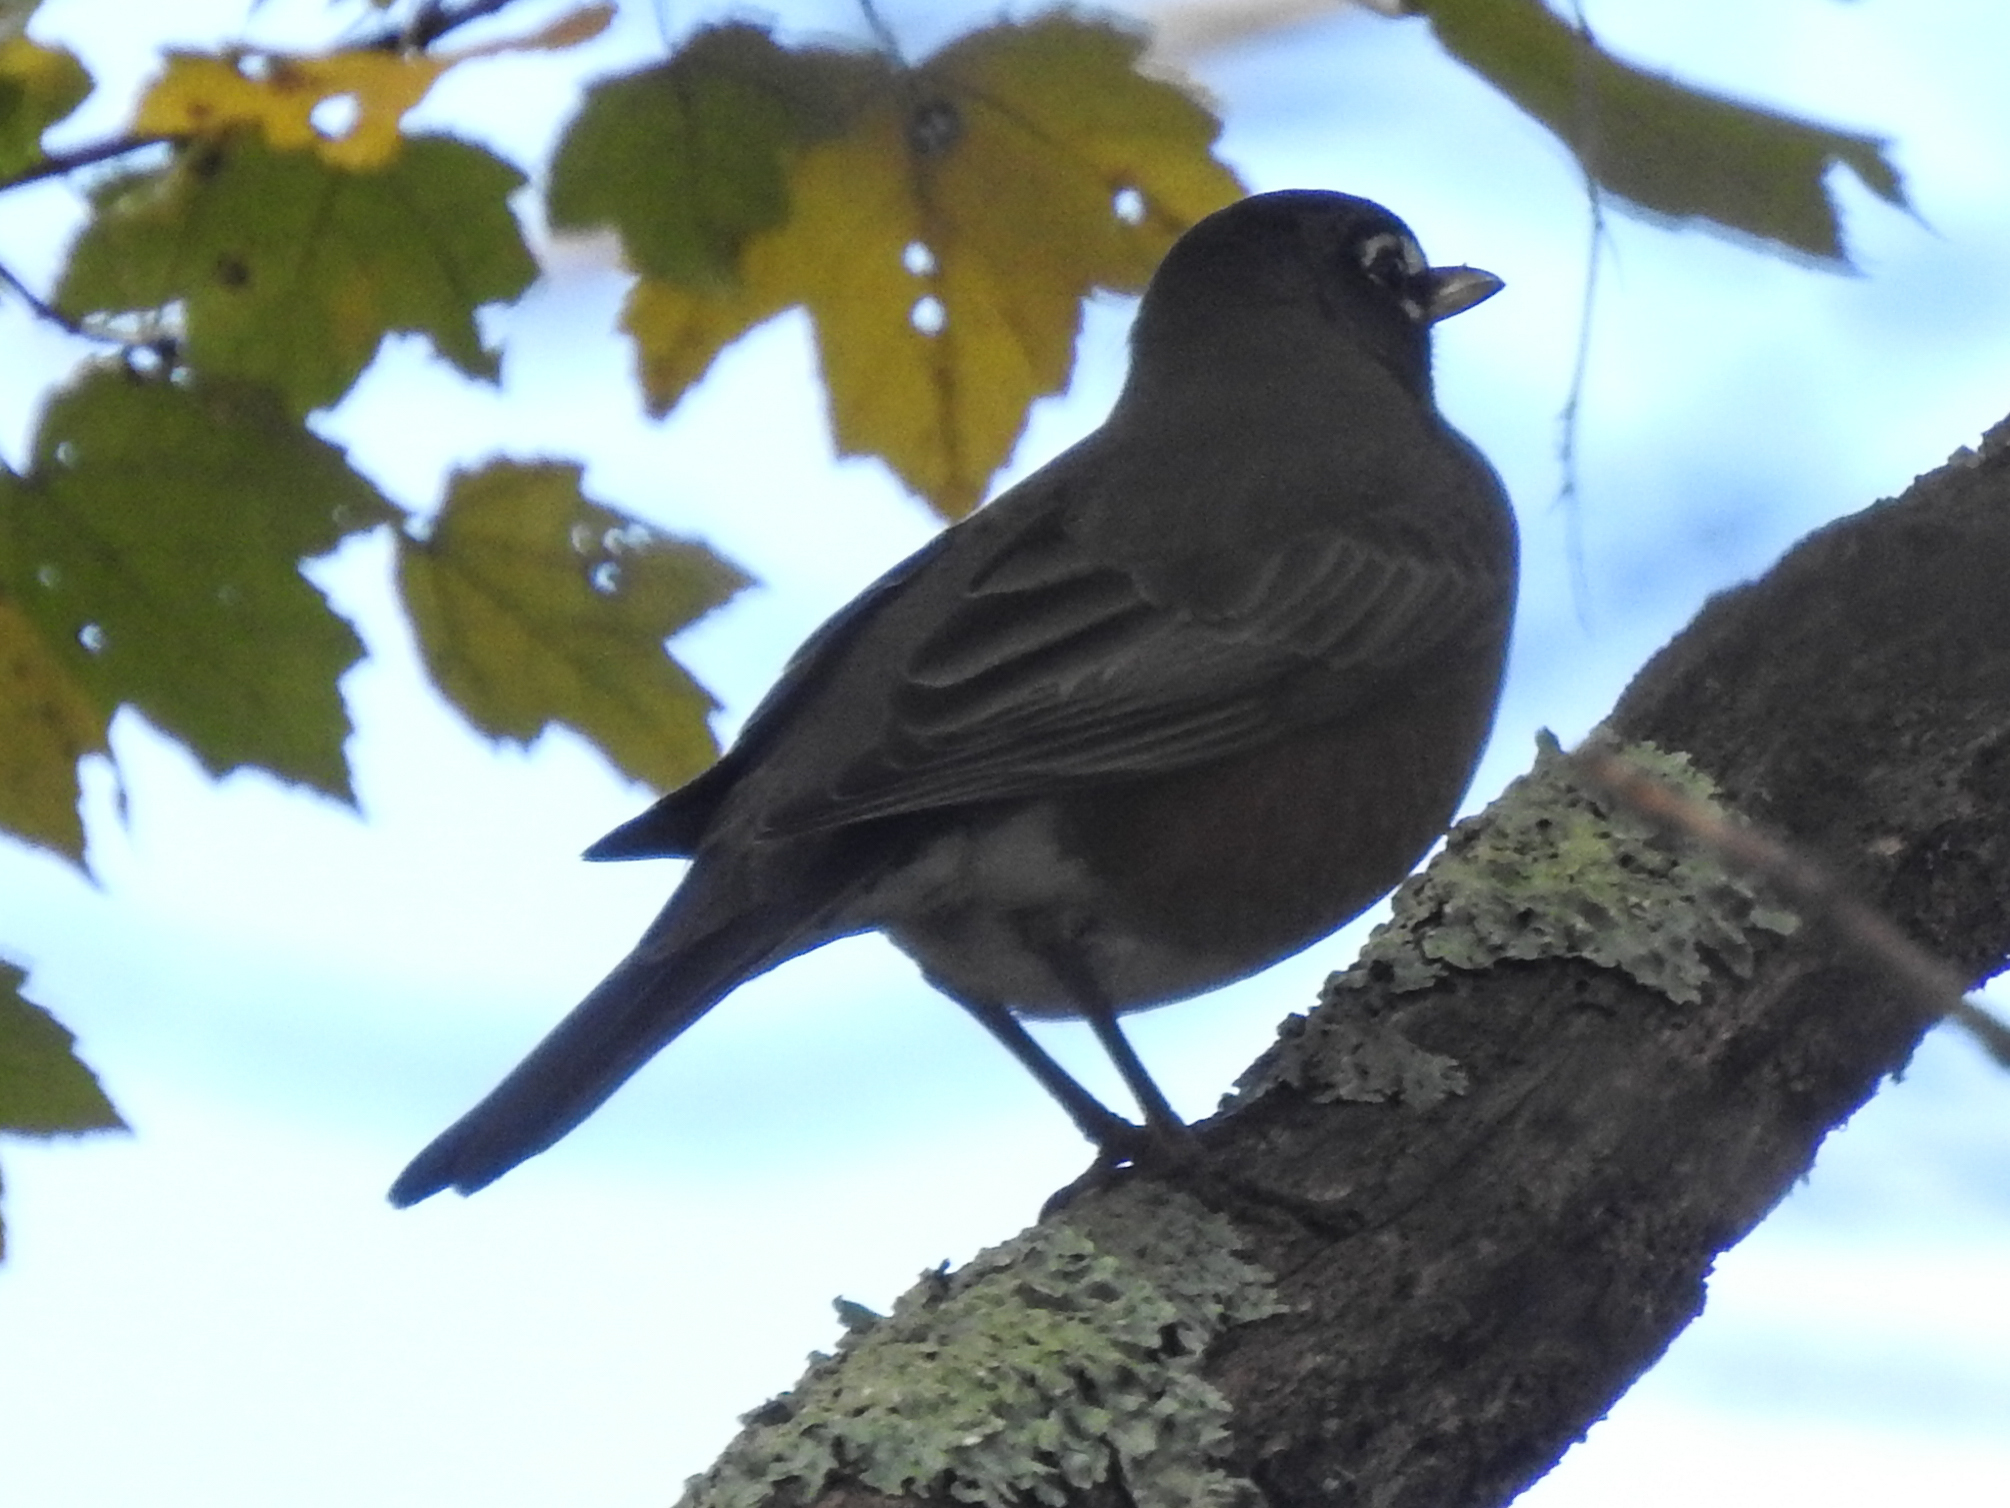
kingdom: Animalia
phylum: Chordata
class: Aves
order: Passeriformes
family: Turdidae
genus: Turdus
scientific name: Turdus migratorius
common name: American robin
